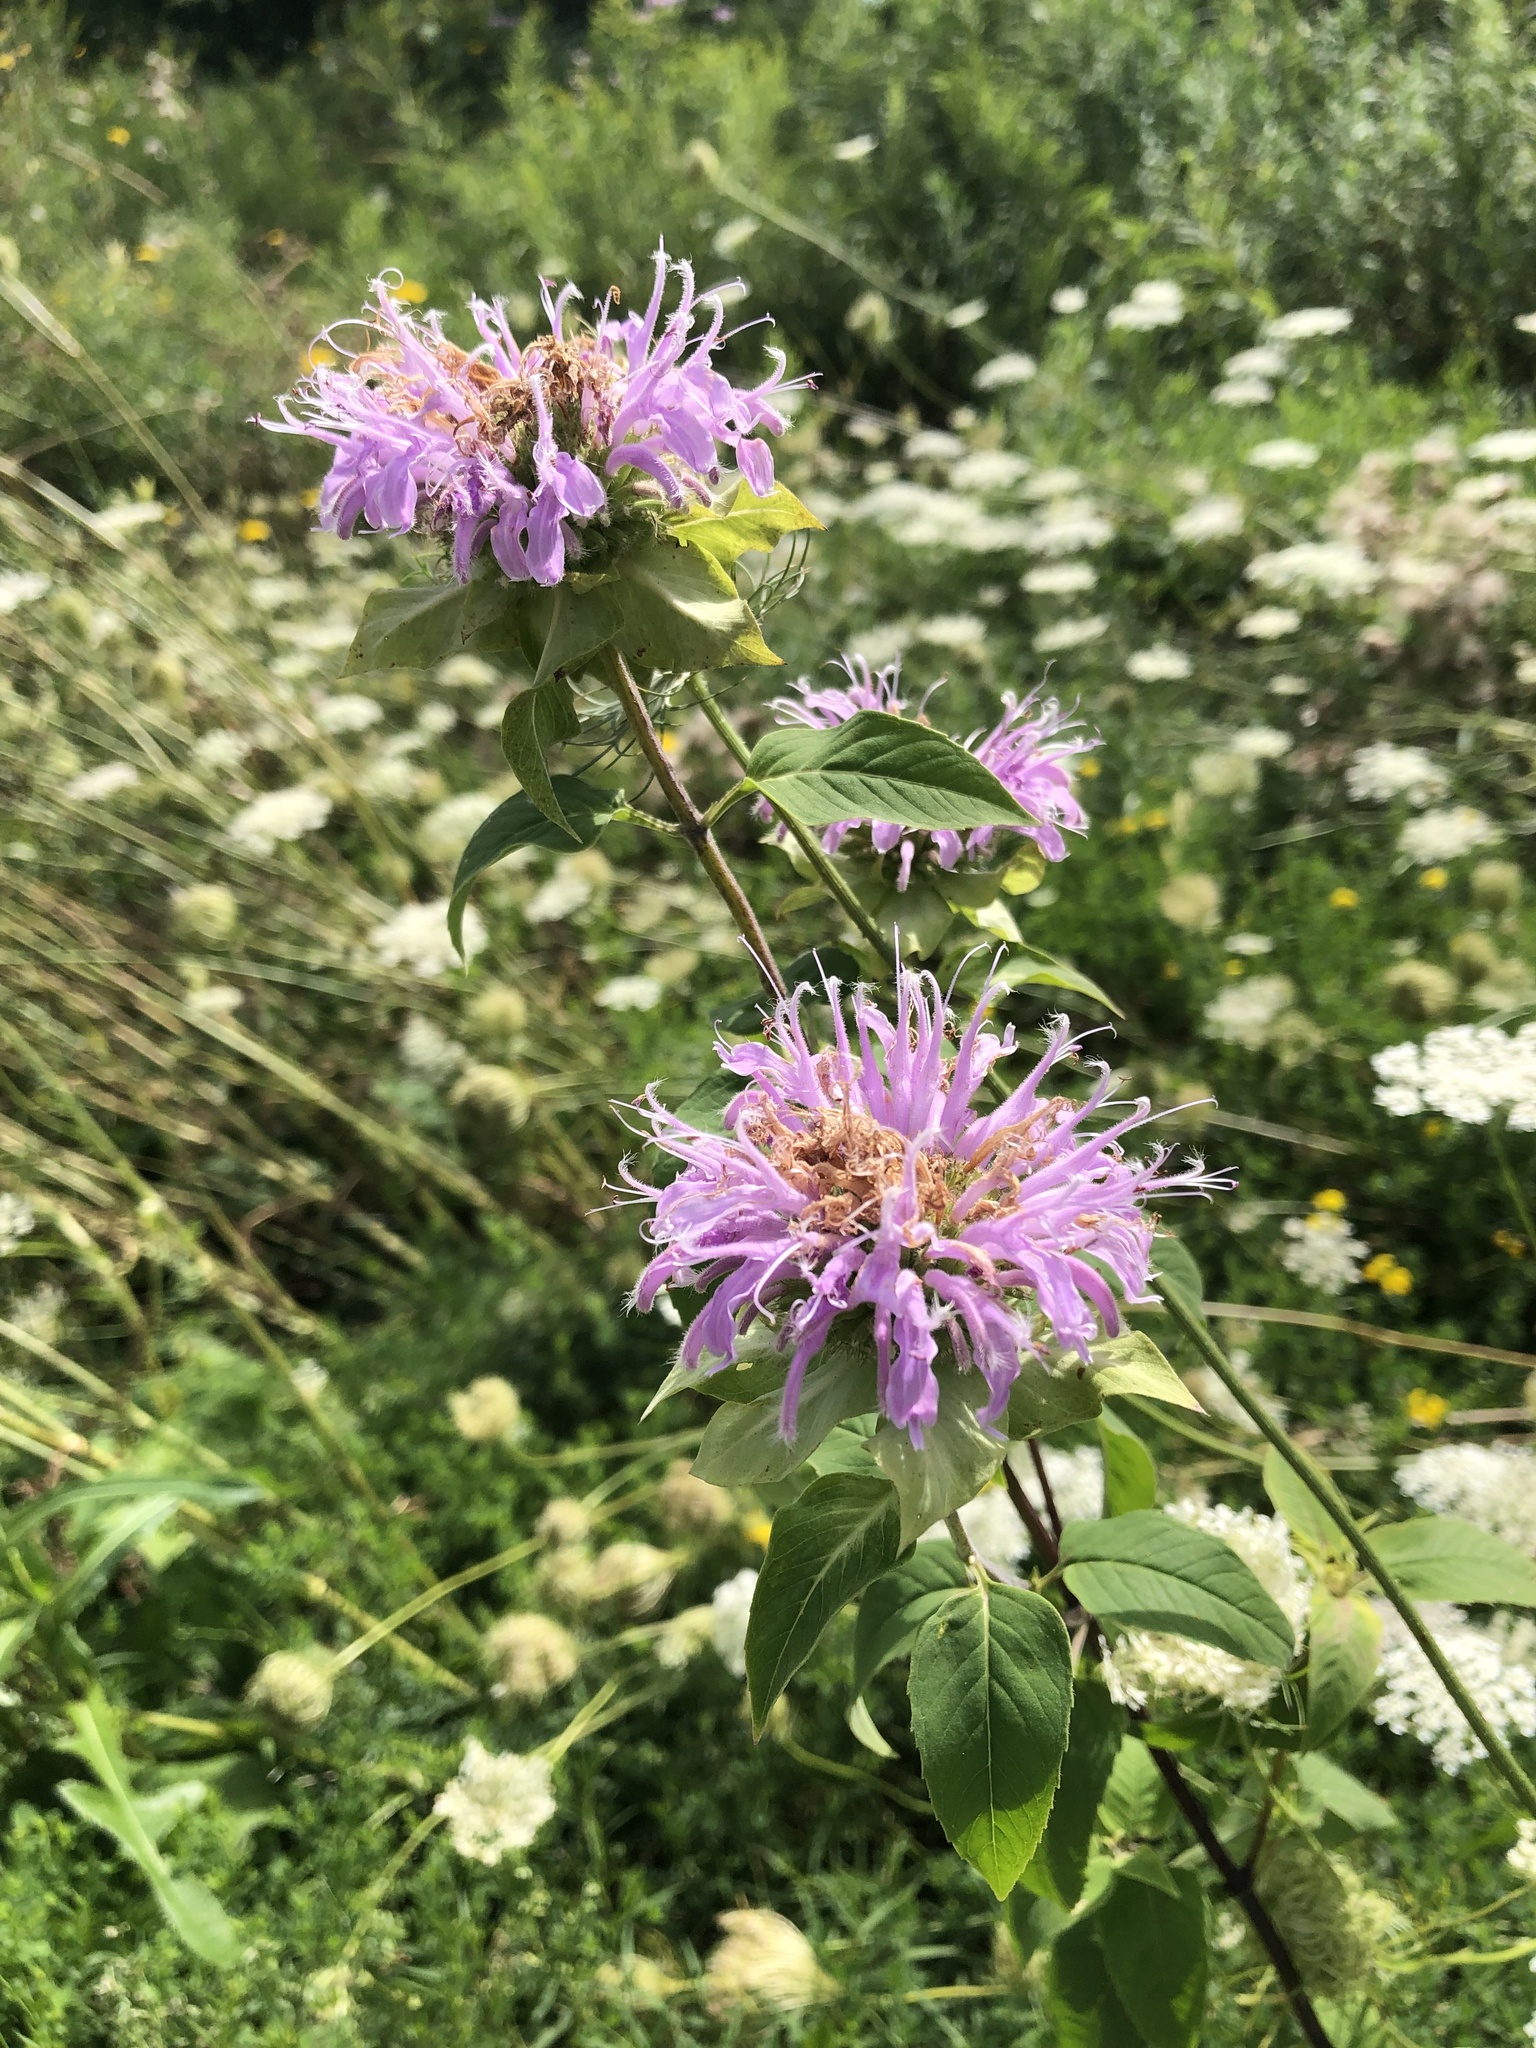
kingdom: Plantae
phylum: Tracheophyta
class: Magnoliopsida
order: Lamiales
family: Lamiaceae
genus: Monarda
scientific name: Monarda fistulosa
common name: Purple beebalm
